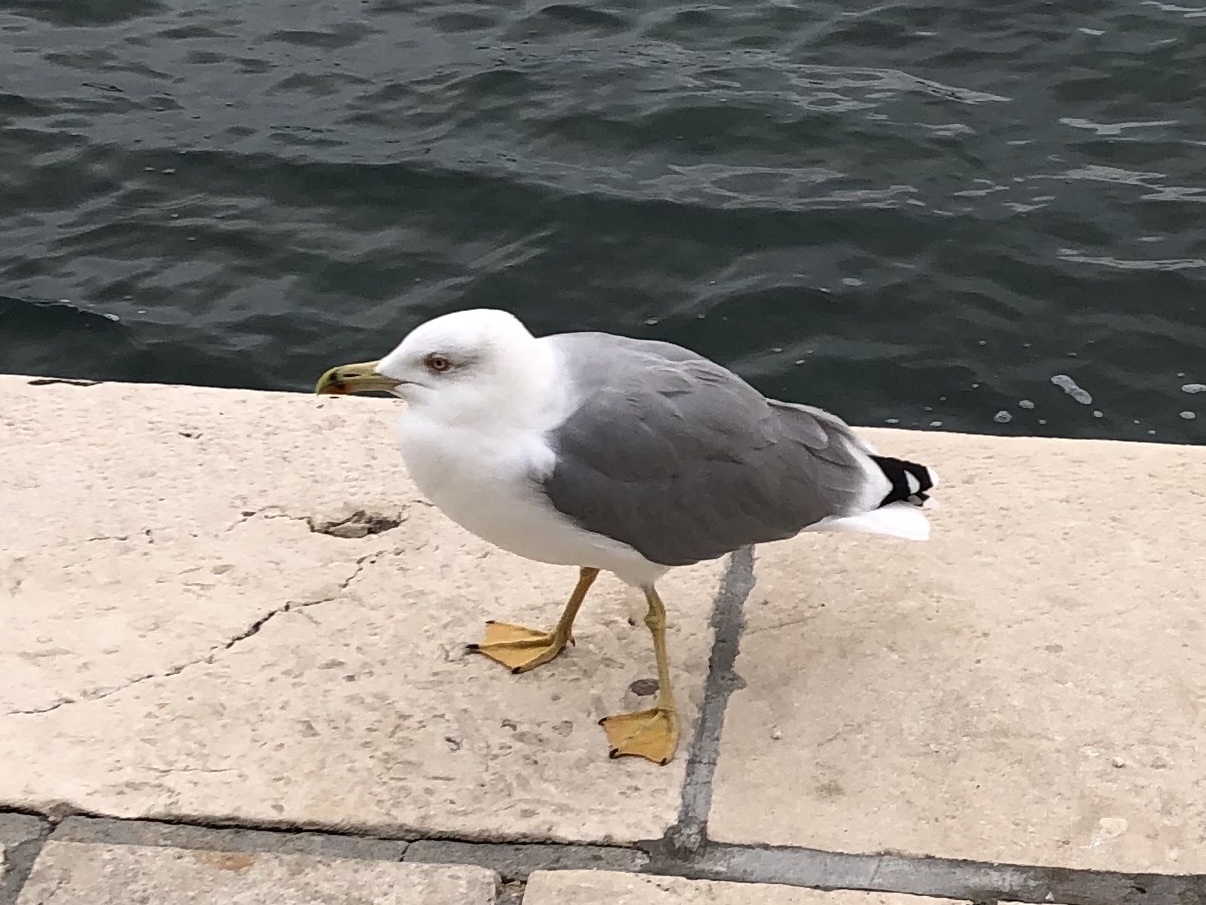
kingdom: Animalia
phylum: Chordata
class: Aves
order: Charadriiformes
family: Laridae
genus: Larus
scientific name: Larus michahellis
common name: Yellow-legged gull
